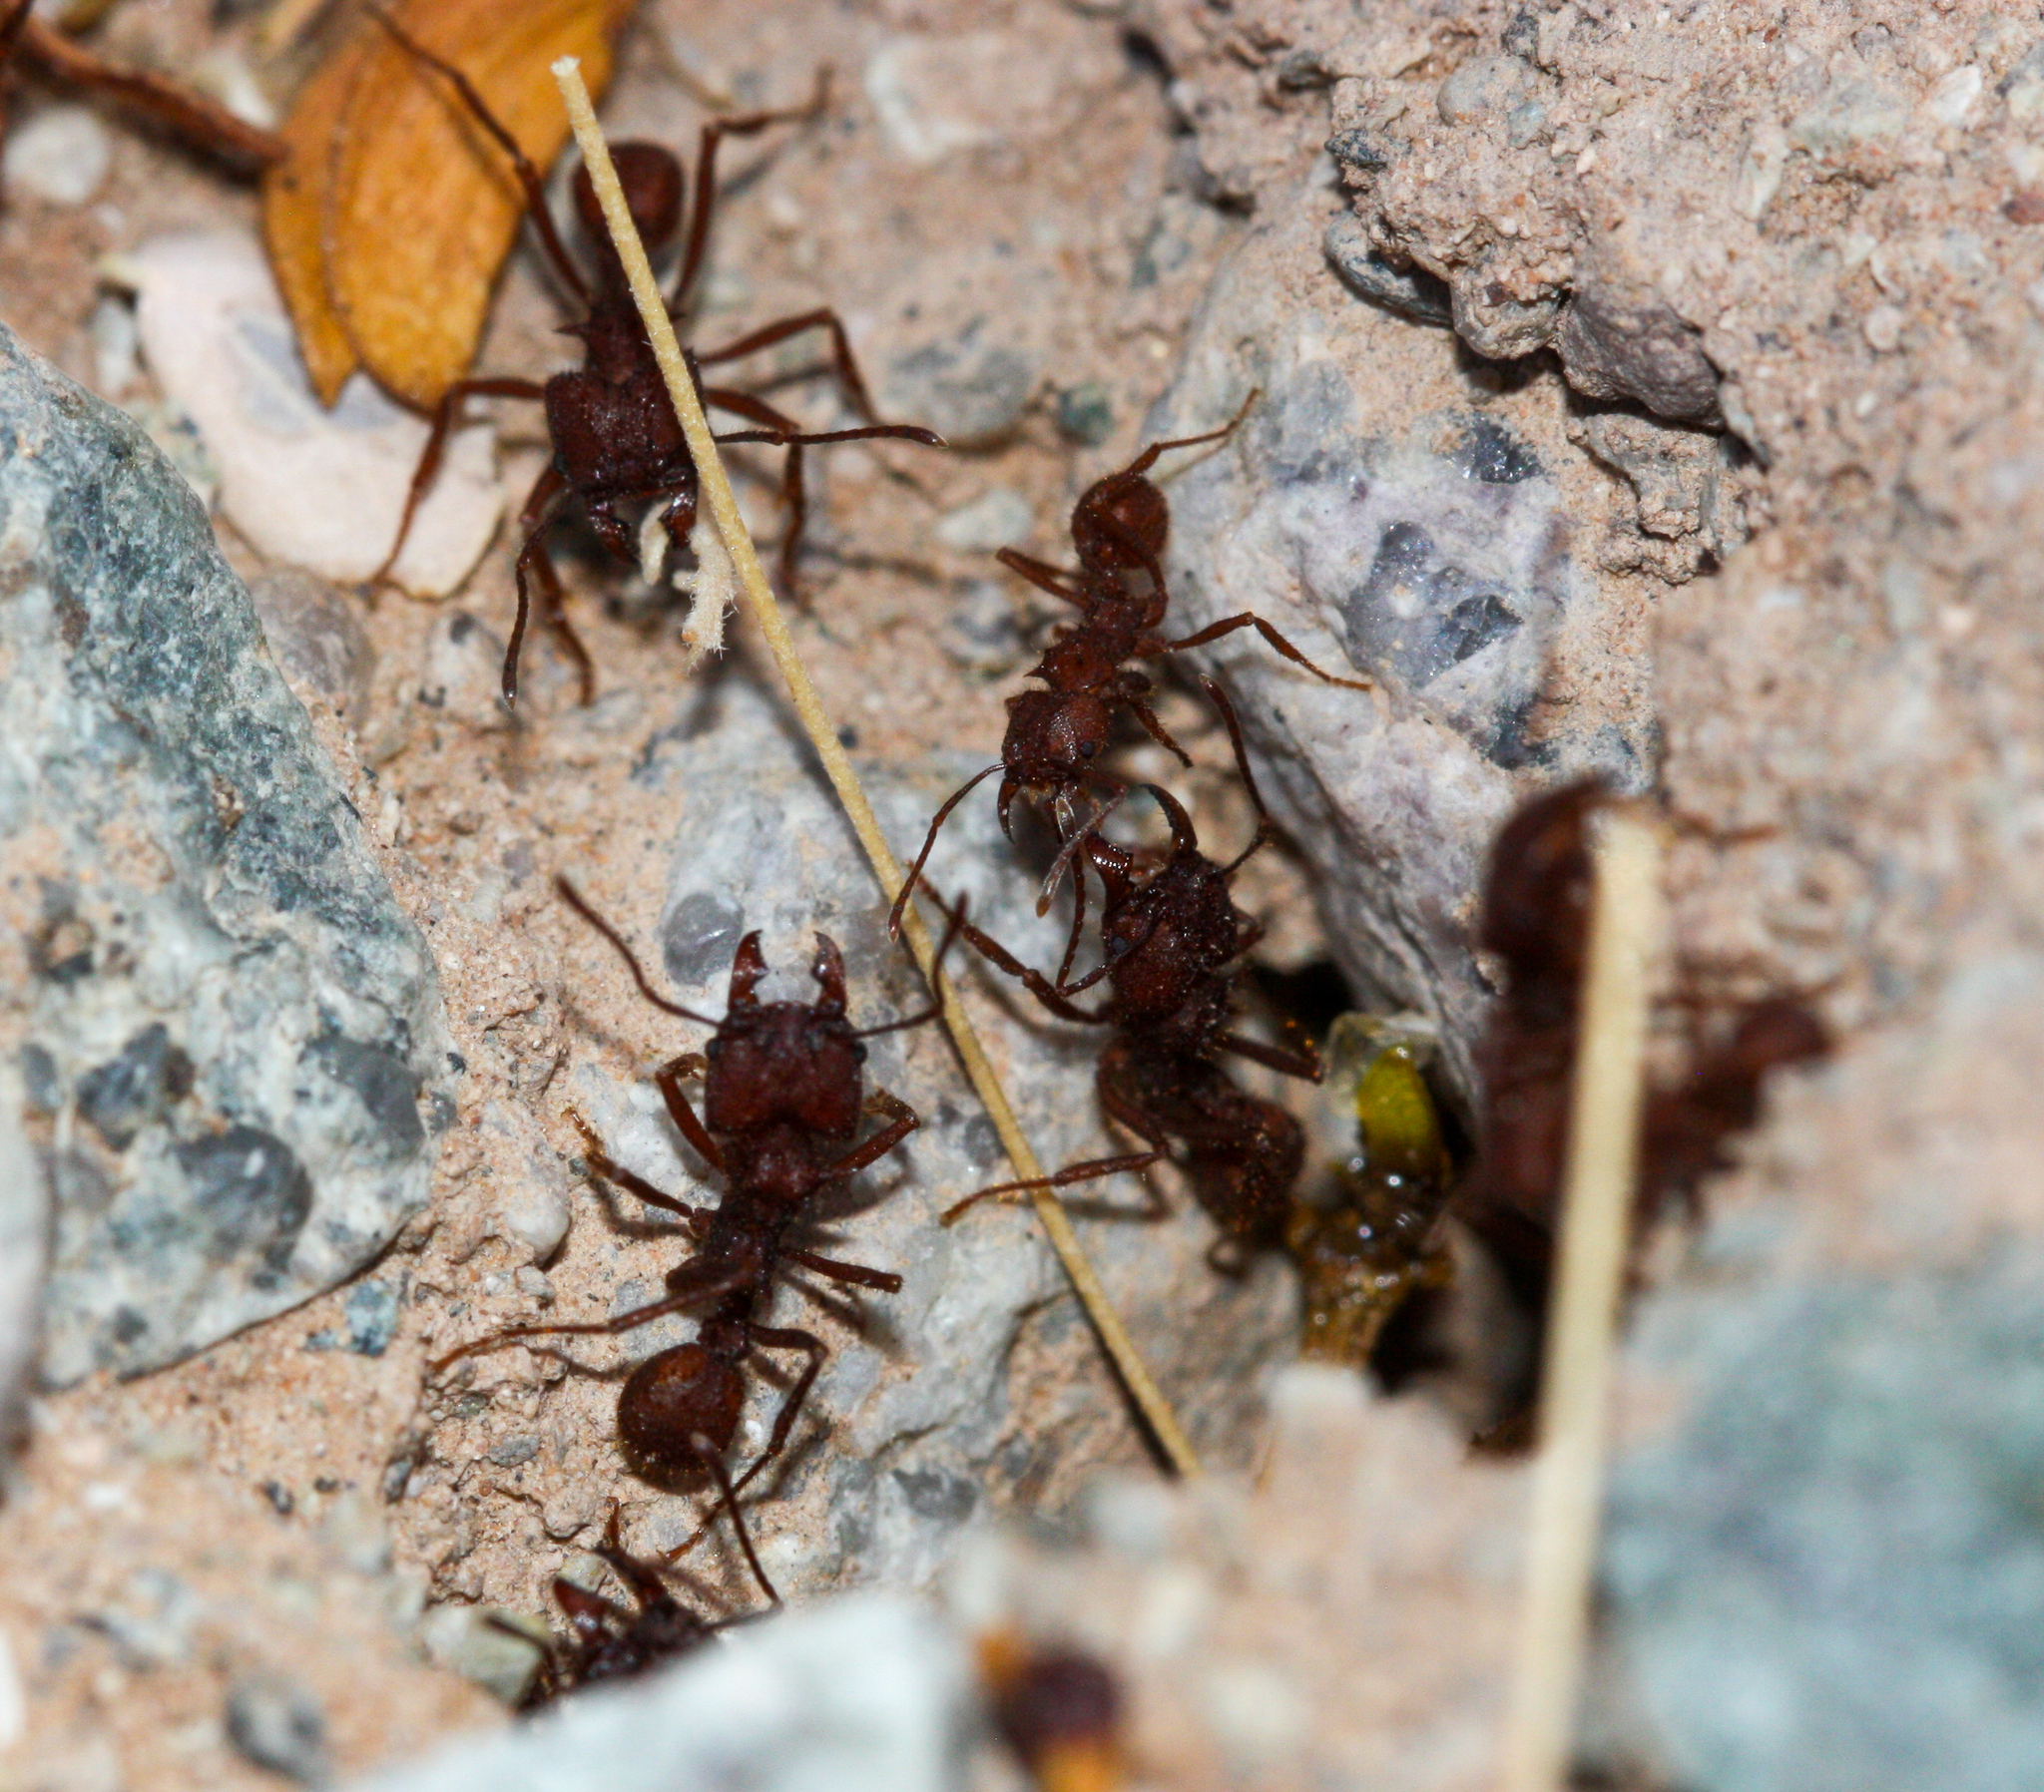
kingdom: Animalia
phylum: Arthropoda
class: Insecta
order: Hymenoptera
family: Formicidae
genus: Atta
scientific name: Atta mexicana
